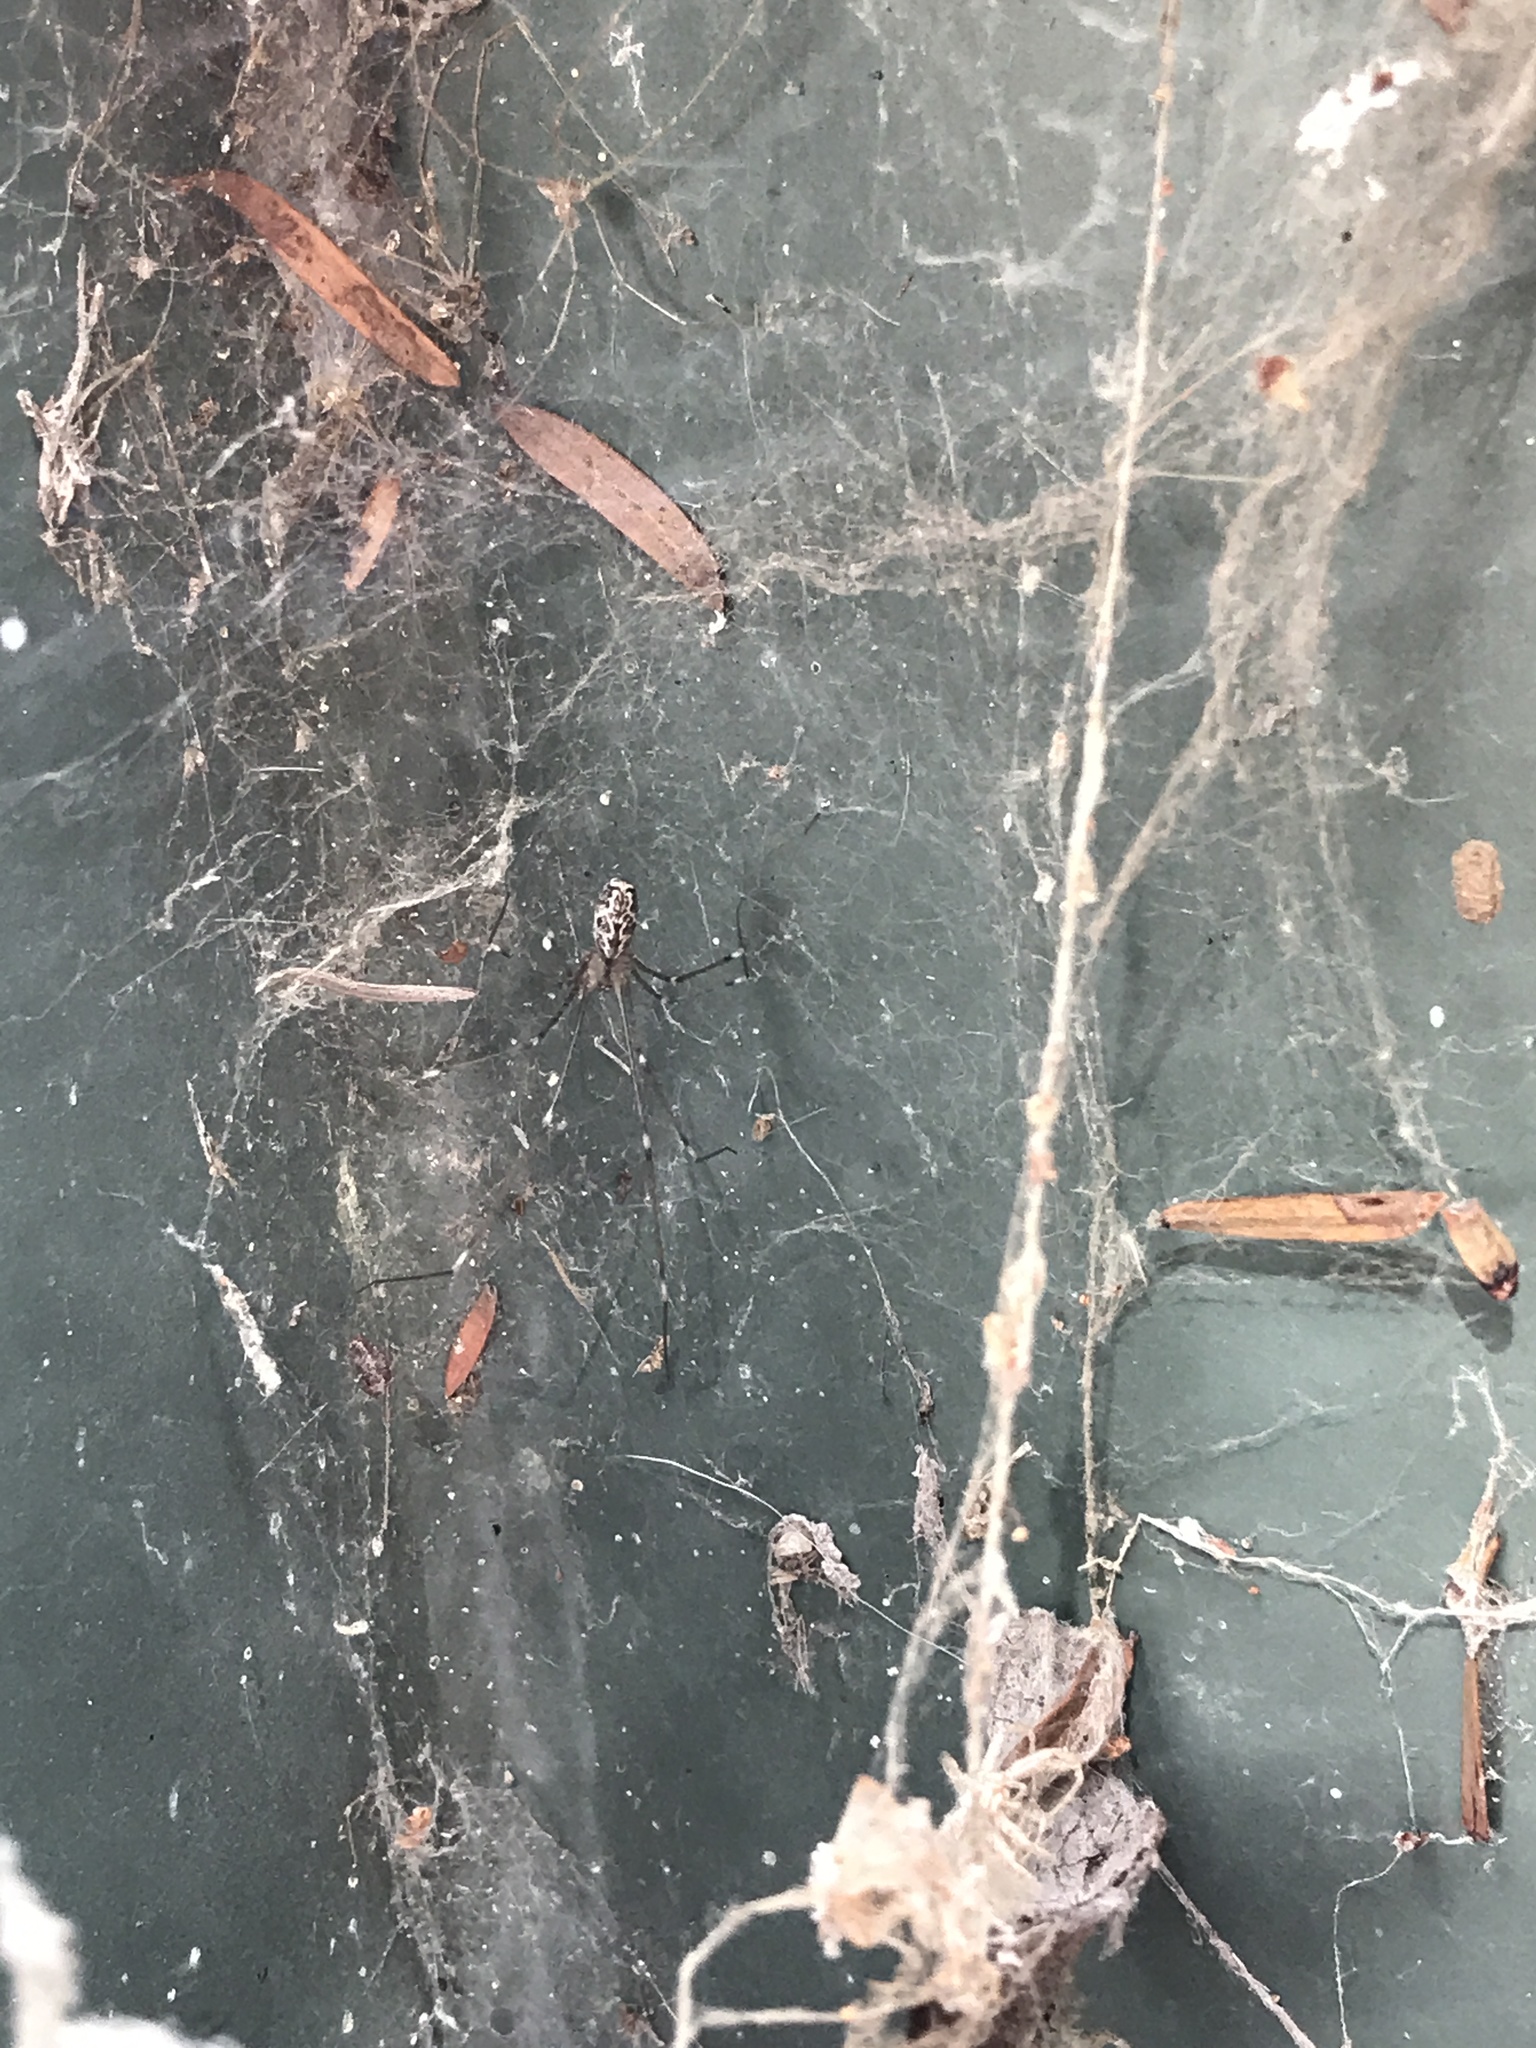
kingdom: Animalia
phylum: Arthropoda
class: Arachnida
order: Araneae
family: Pholcidae
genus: Holocnemus
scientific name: Holocnemus pluchei
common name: Marbled cellar spider
